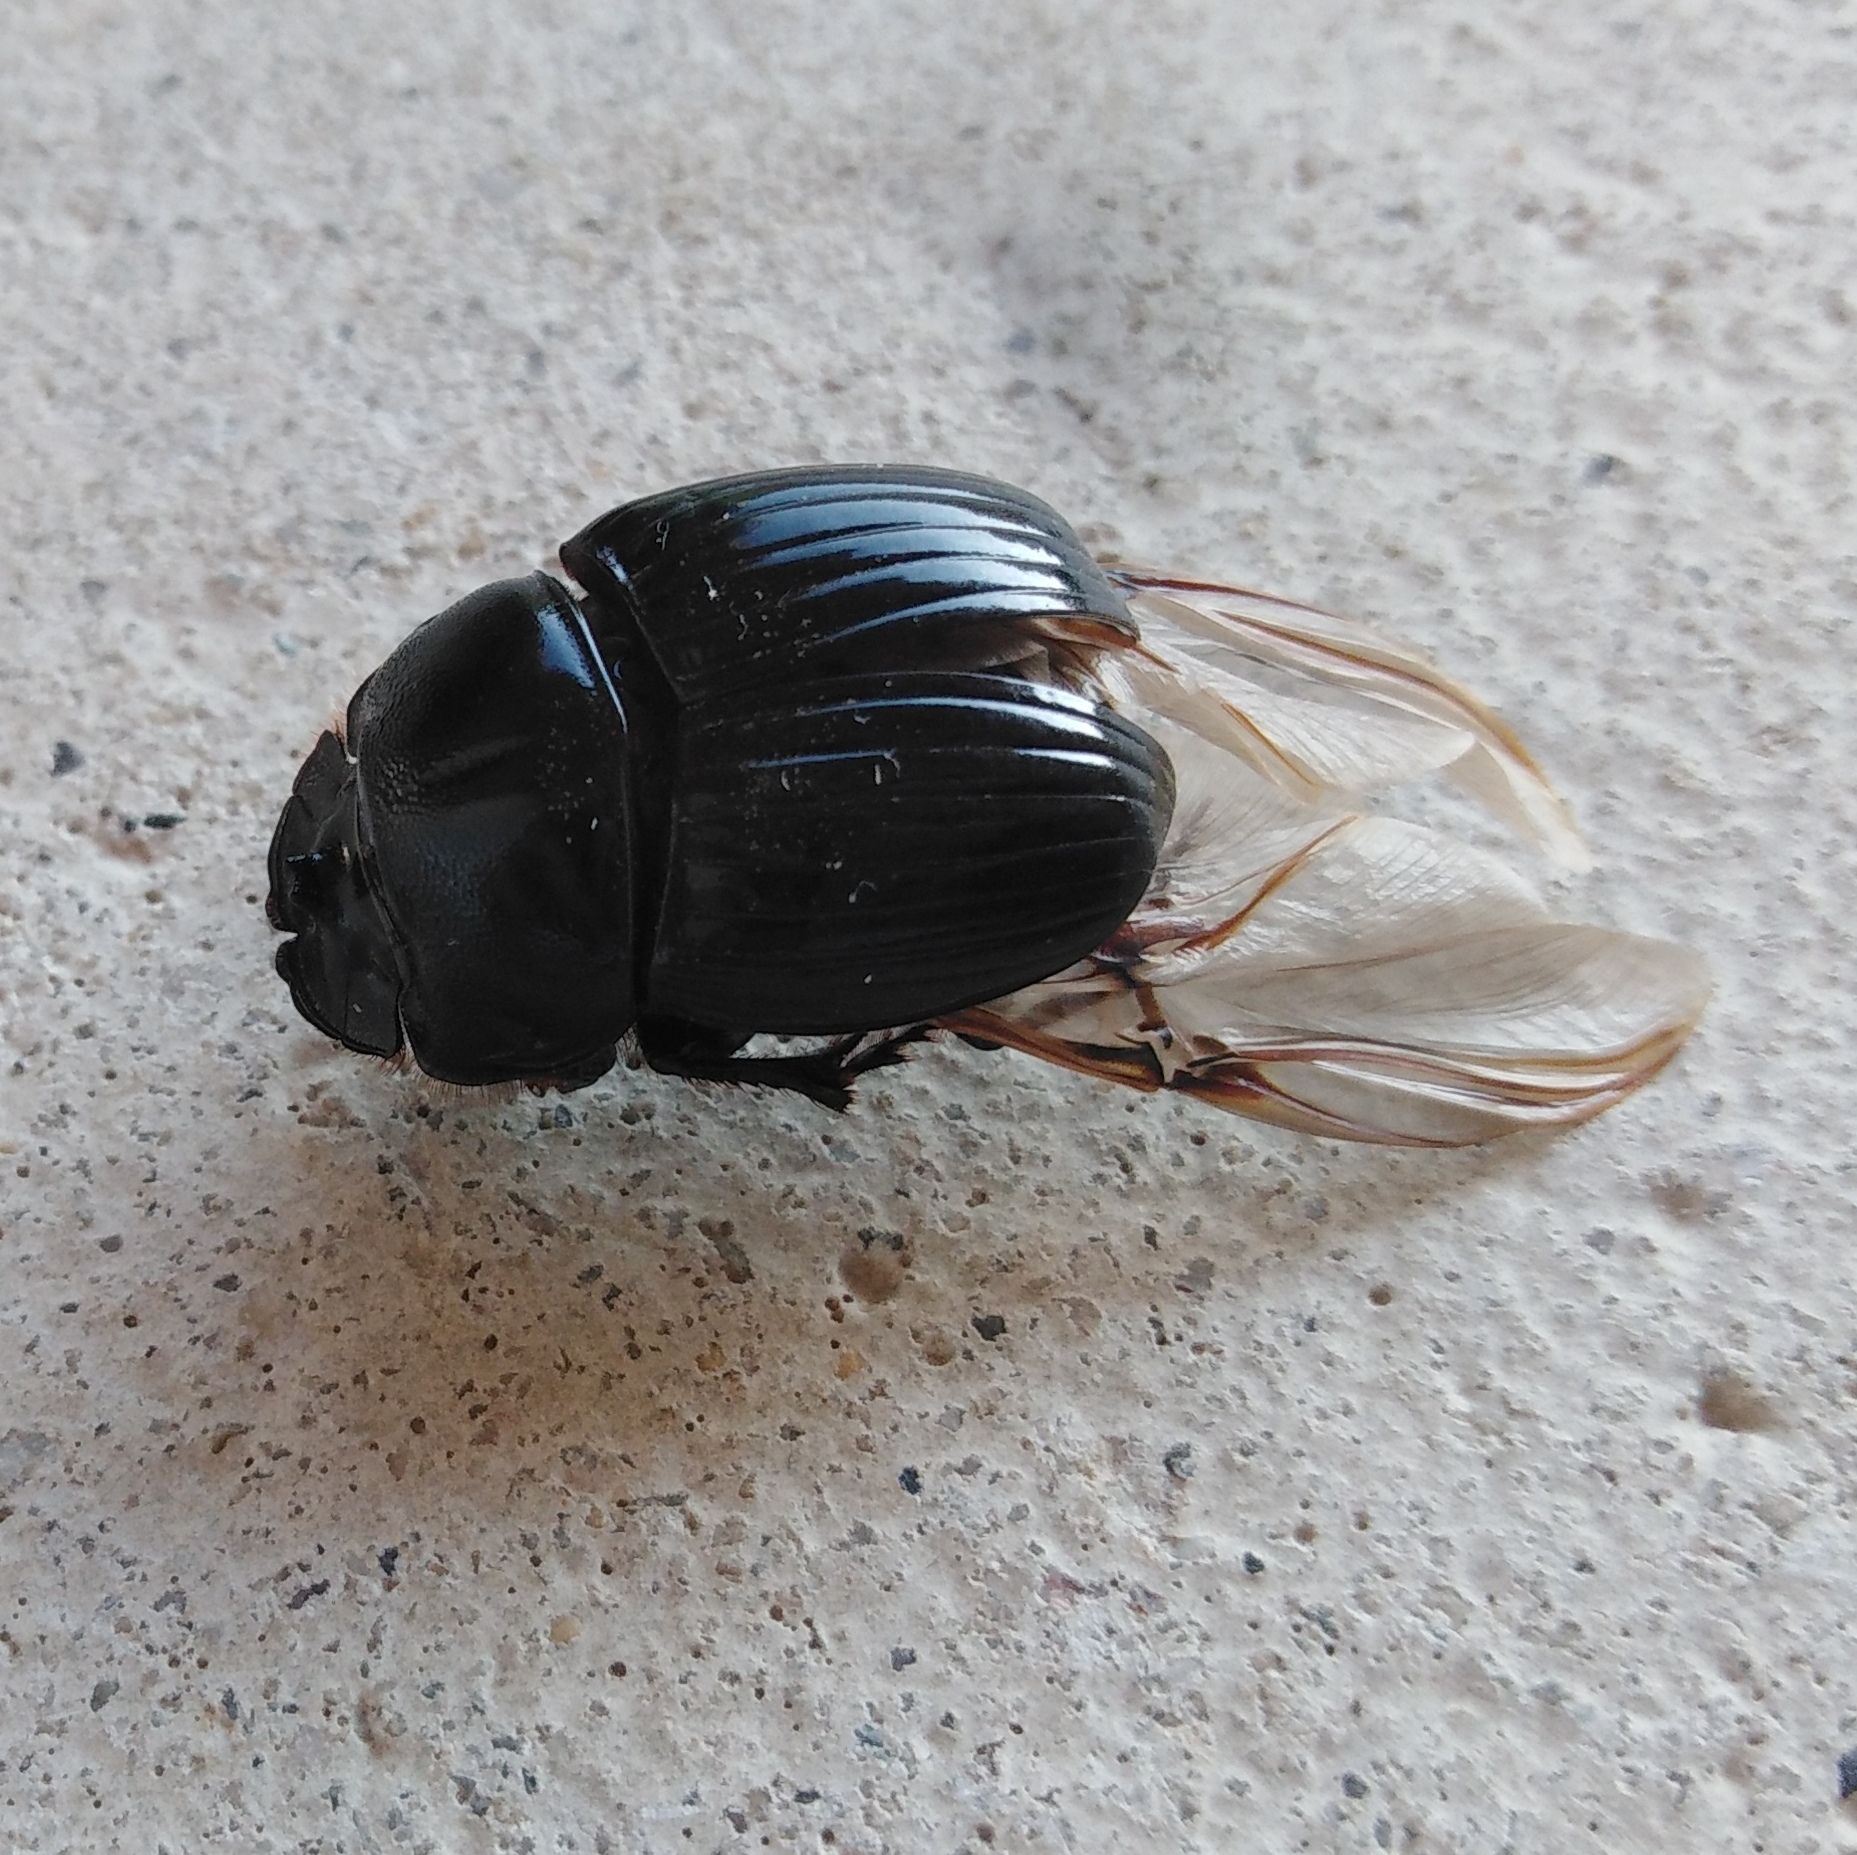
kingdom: Animalia
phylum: Arthropoda
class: Insecta
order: Coleoptera
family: Scarabaeidae
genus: Copris
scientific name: Copris lunaris
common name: Horned dung beetle
